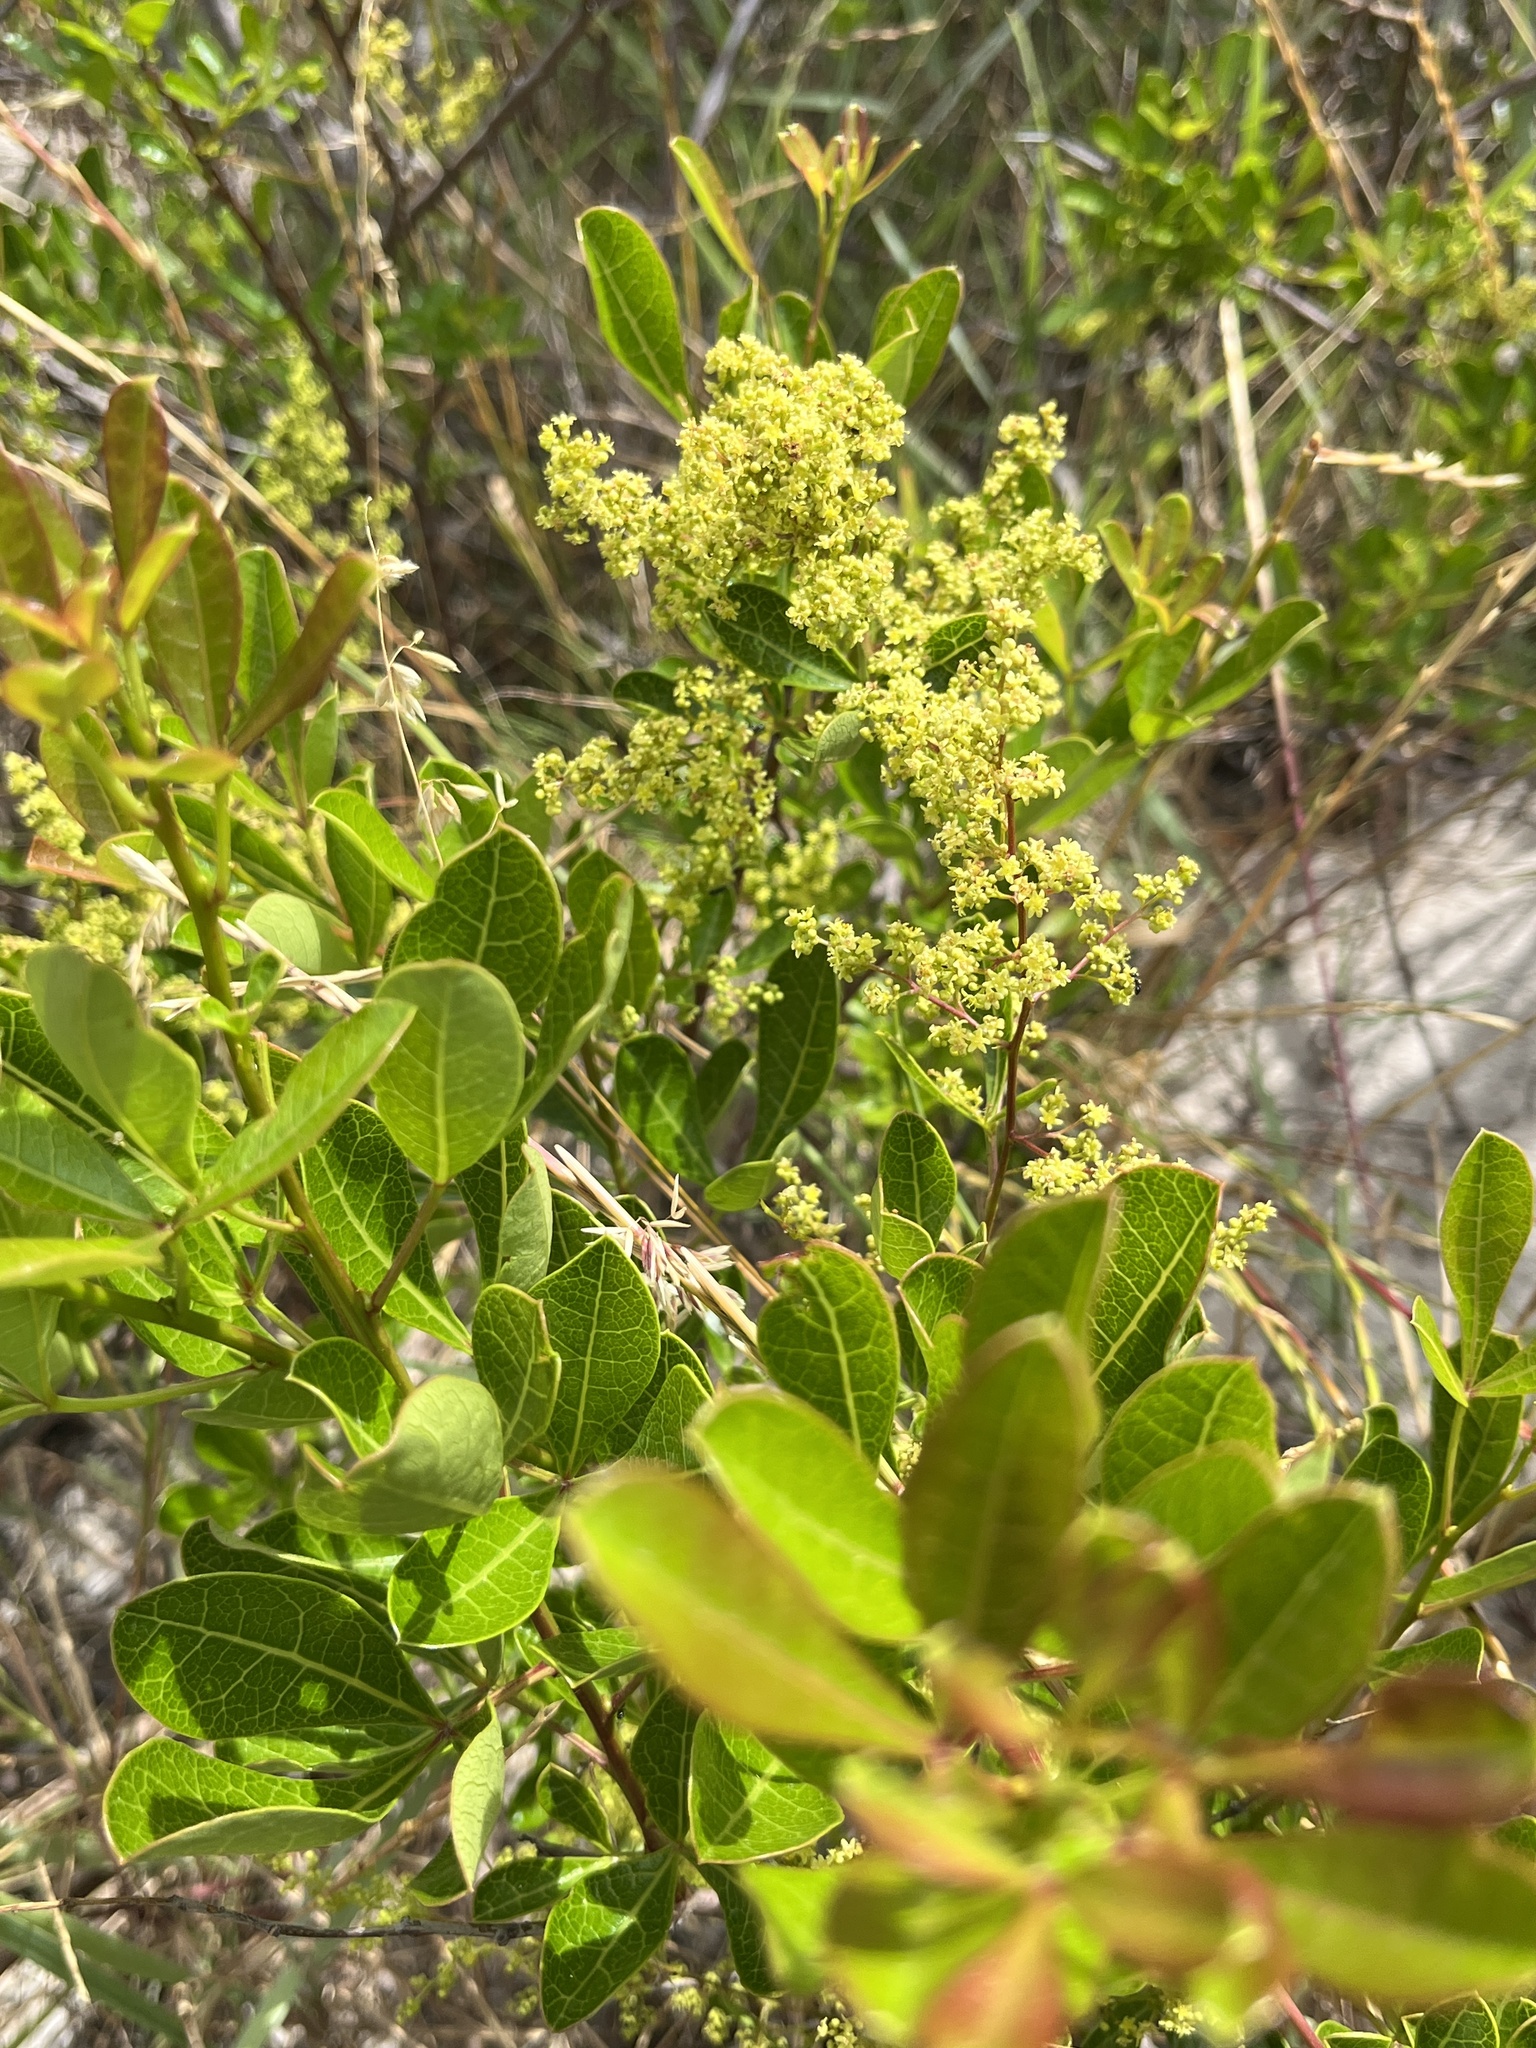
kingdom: Plantae
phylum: Tracheophyta
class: Magnoliopsida
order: Sapindales
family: Anacardiaceae
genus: Searsia
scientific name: Searsia laevigata
